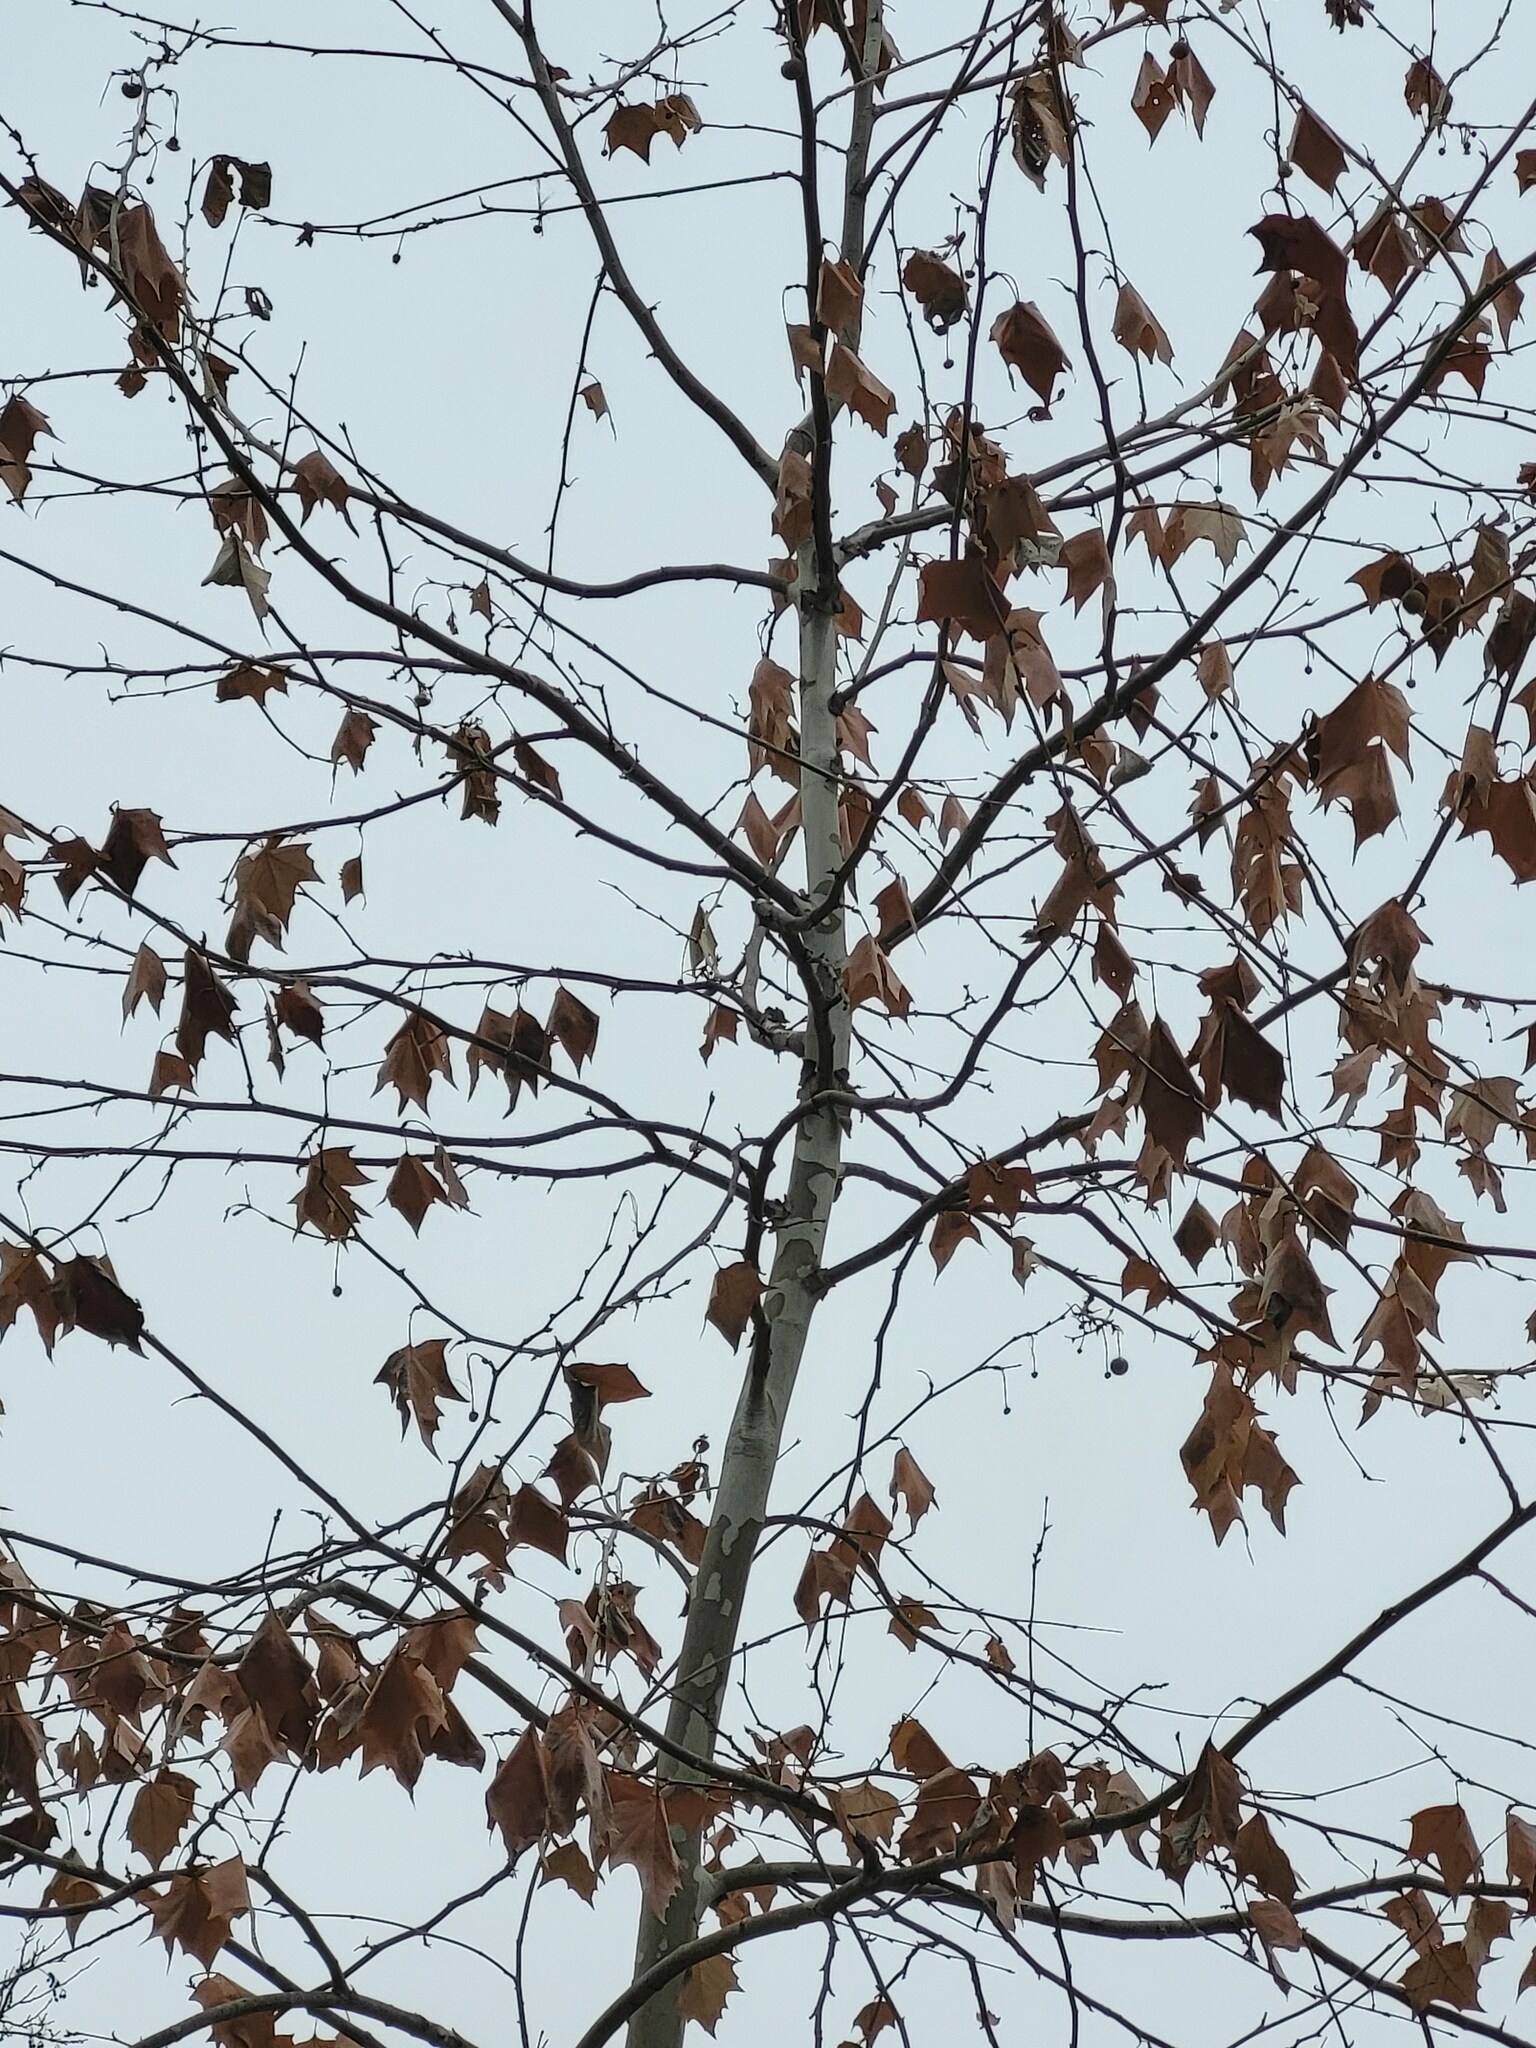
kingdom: Plantae
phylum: Tracheophyta
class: Magnoliopsida
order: Proteales
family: Platanaceae
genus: Platanus
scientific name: Platanus occidentalis
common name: American sycamore
